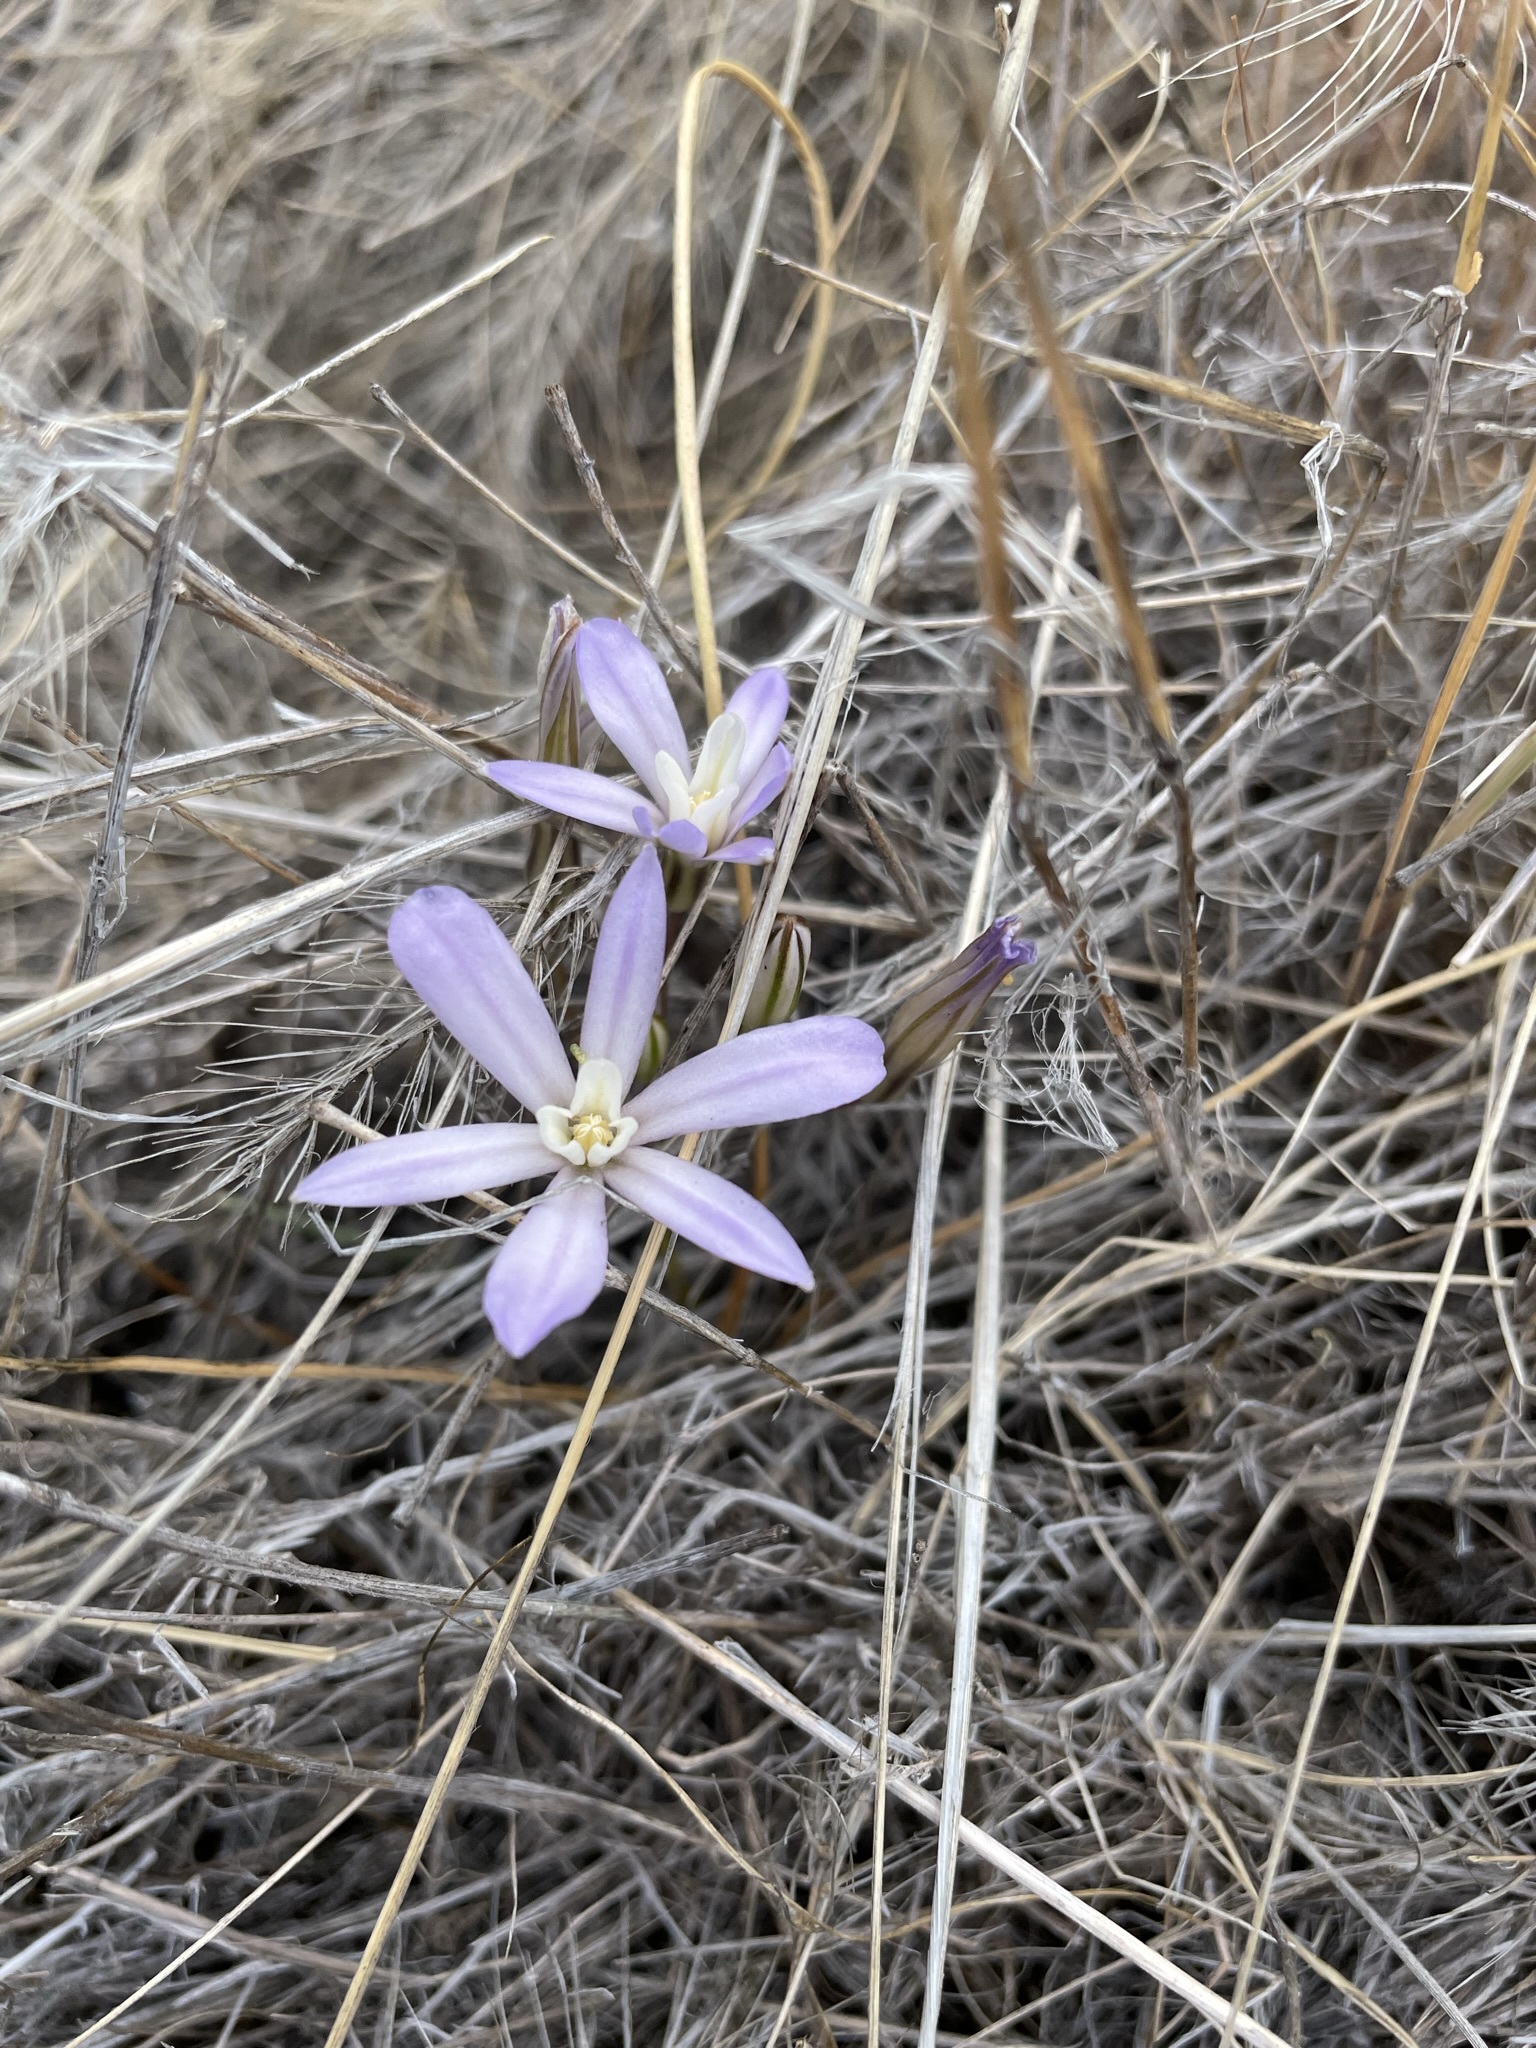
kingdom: Plantae
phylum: Tracheophyta
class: Liliopsida
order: Asparagales
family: Asparagaceae
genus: Brodiaea
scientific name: Brodiaea nana
